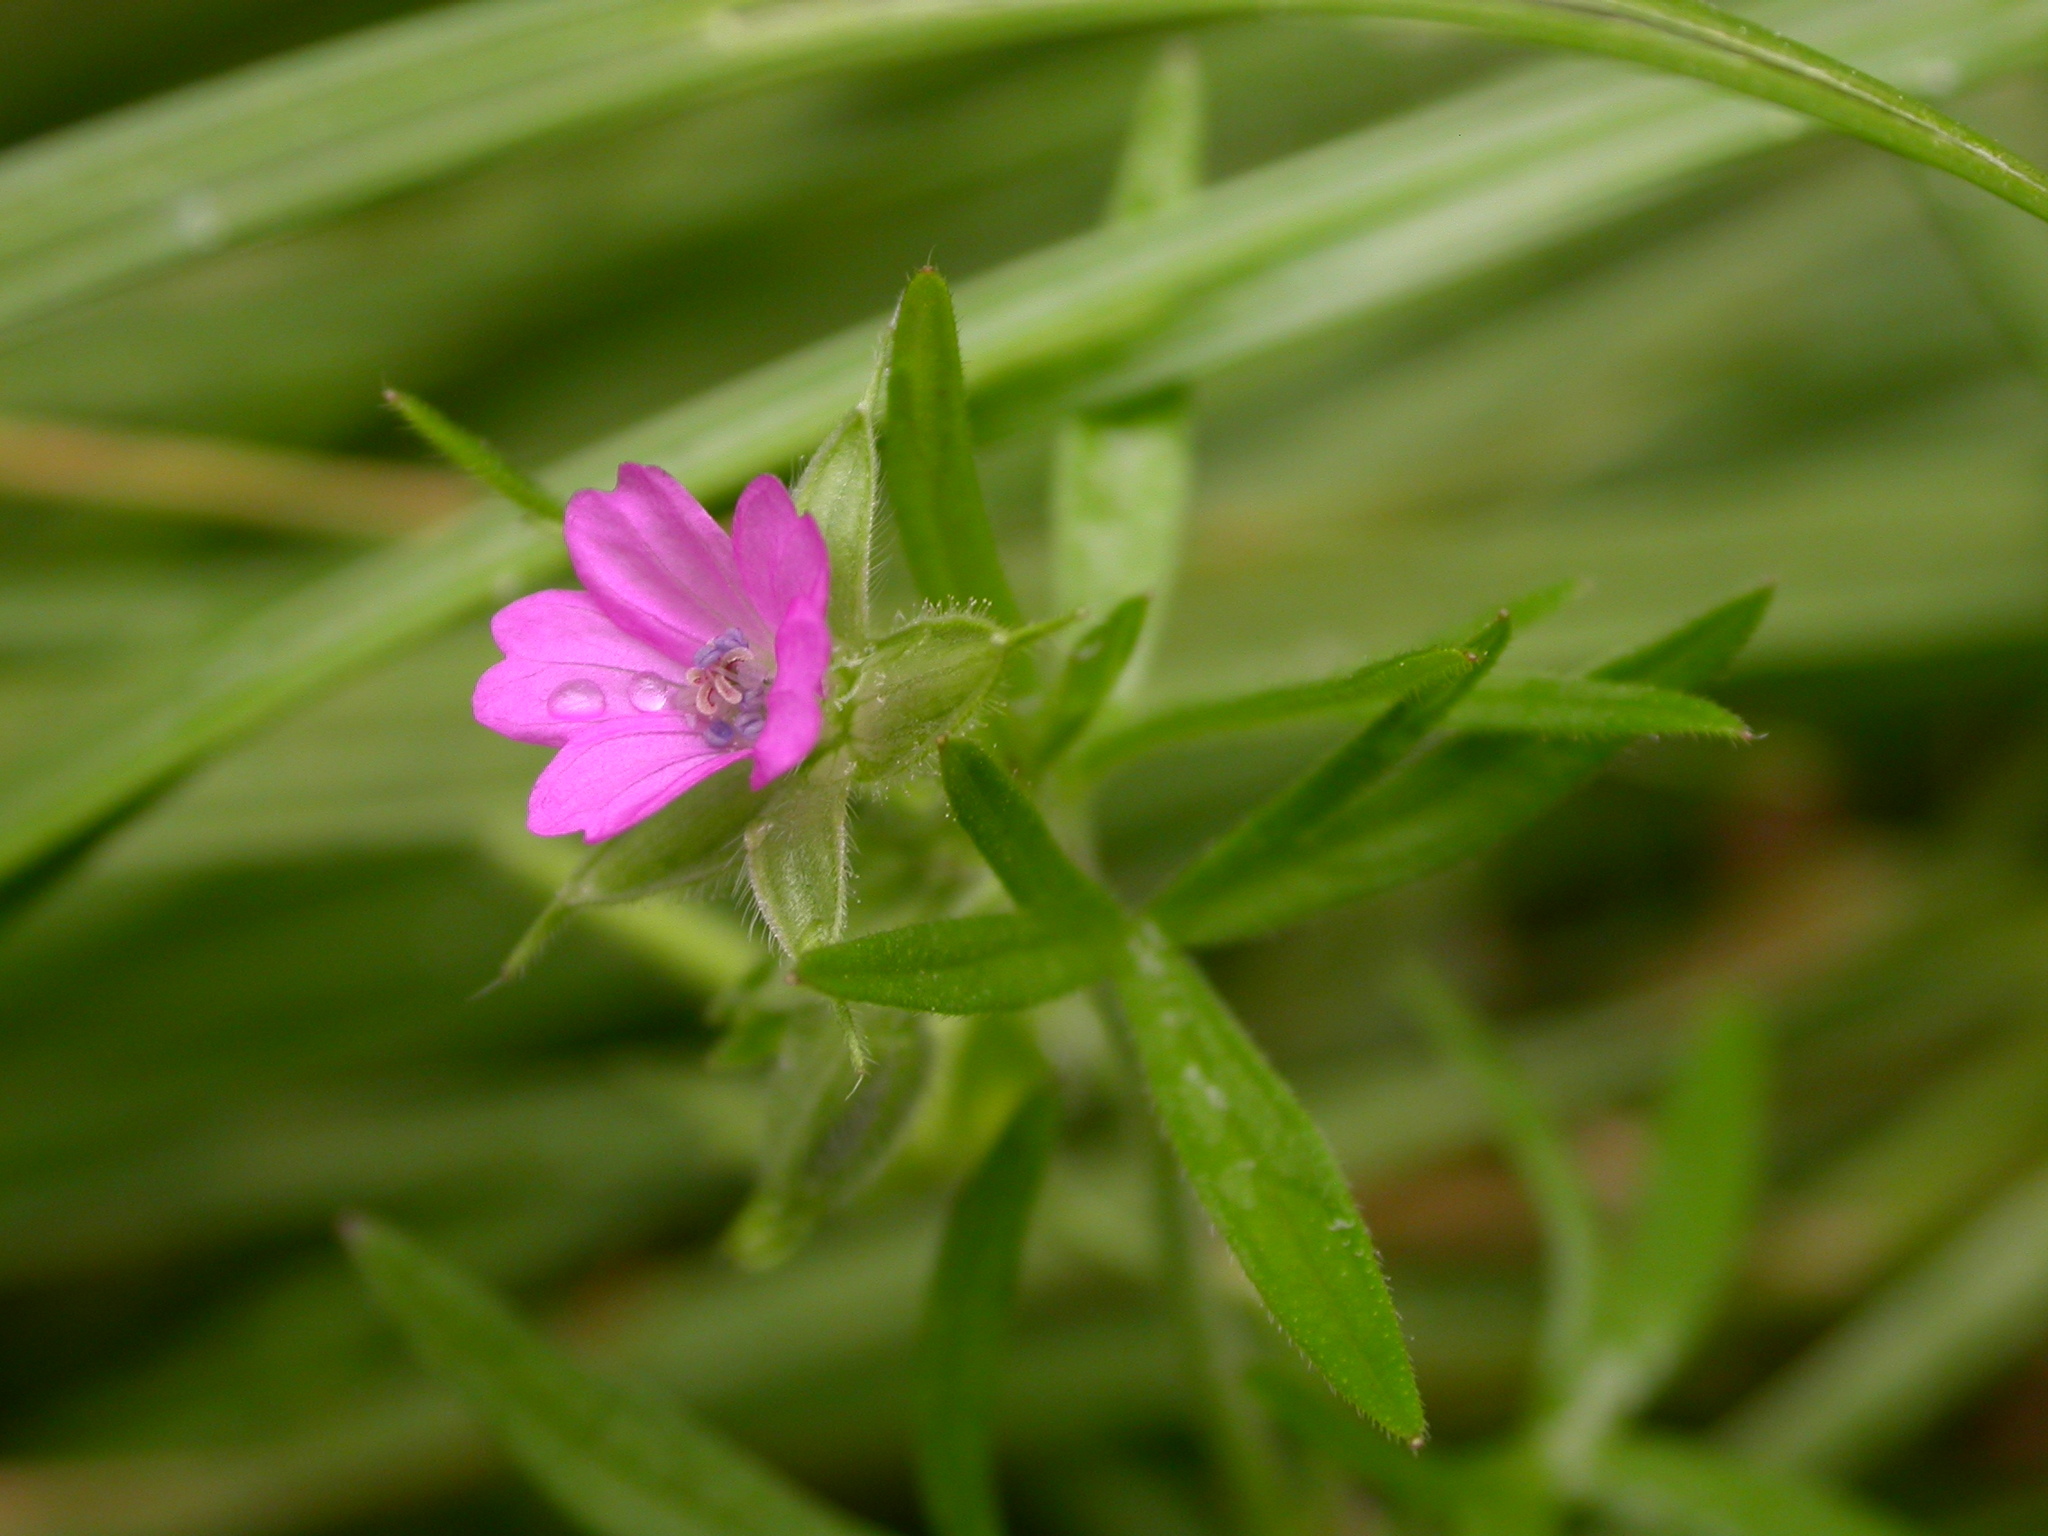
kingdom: Plantae
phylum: Tracheophyta
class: Magnoliopsida
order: Geraniales
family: Geraniaceae
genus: Geranium
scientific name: Geranium dissectum
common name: Cut-leaved crane's-bill
